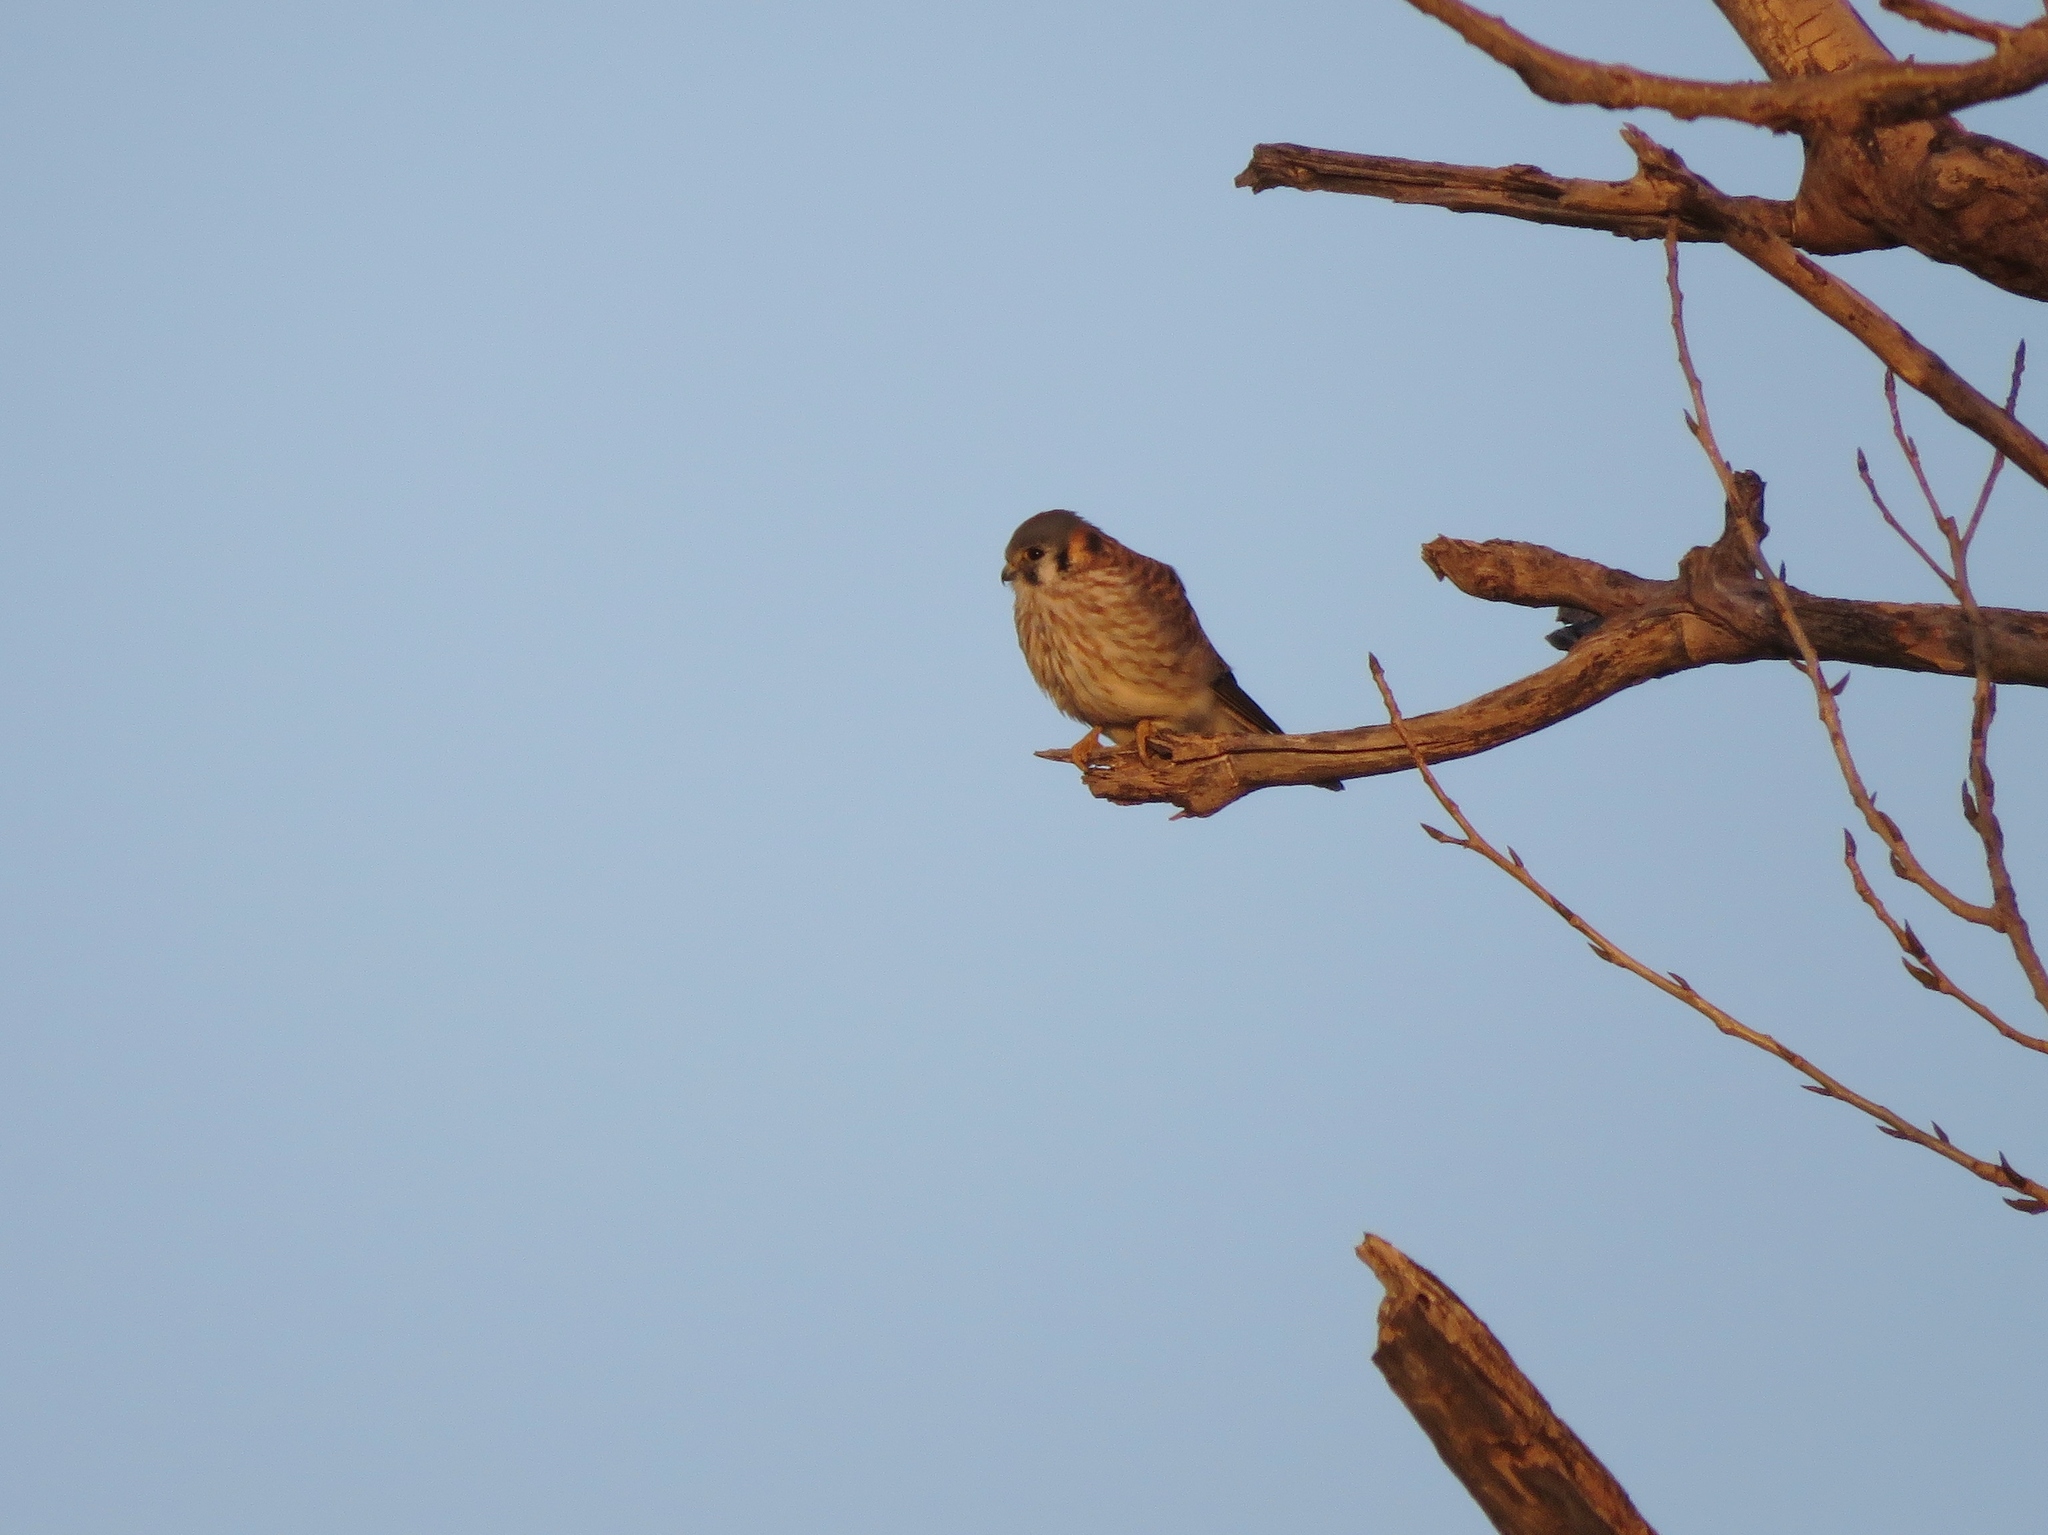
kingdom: Animalia
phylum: Chordata
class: Aves
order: Falconiformes
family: Falconidae
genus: Falco
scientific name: Falco sparverius
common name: American kestrel
